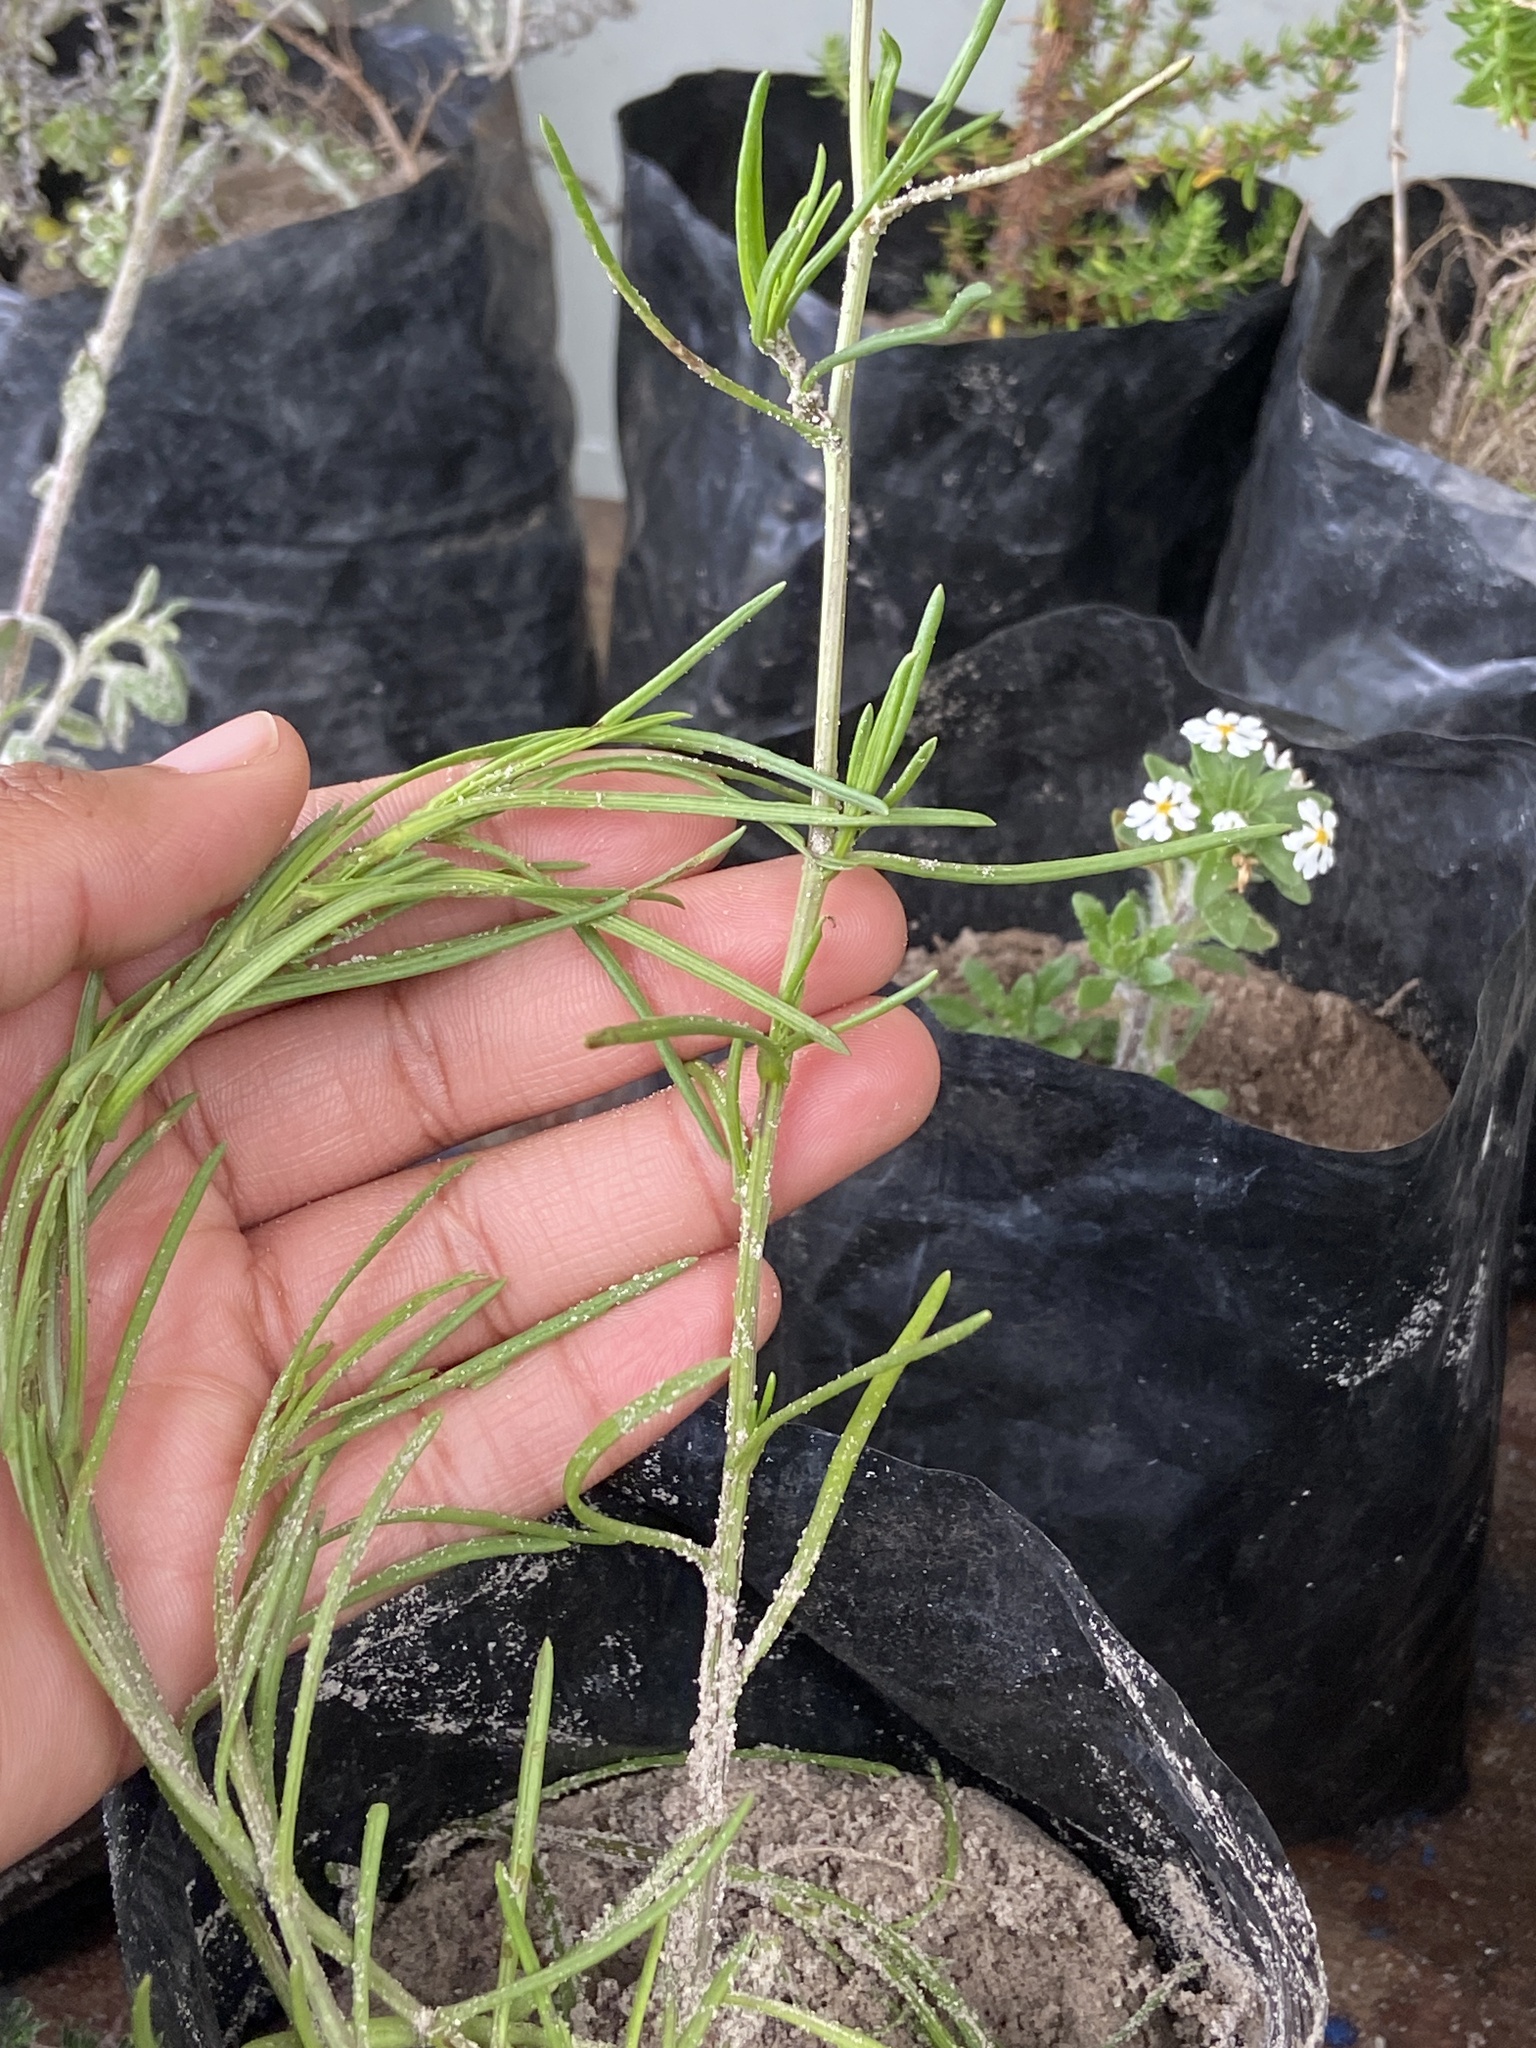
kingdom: Plantae
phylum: Tracheophyta
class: Magnoliopsida
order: Asterales
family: Asteraceae
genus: Senecio
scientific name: Senecio burchellii
